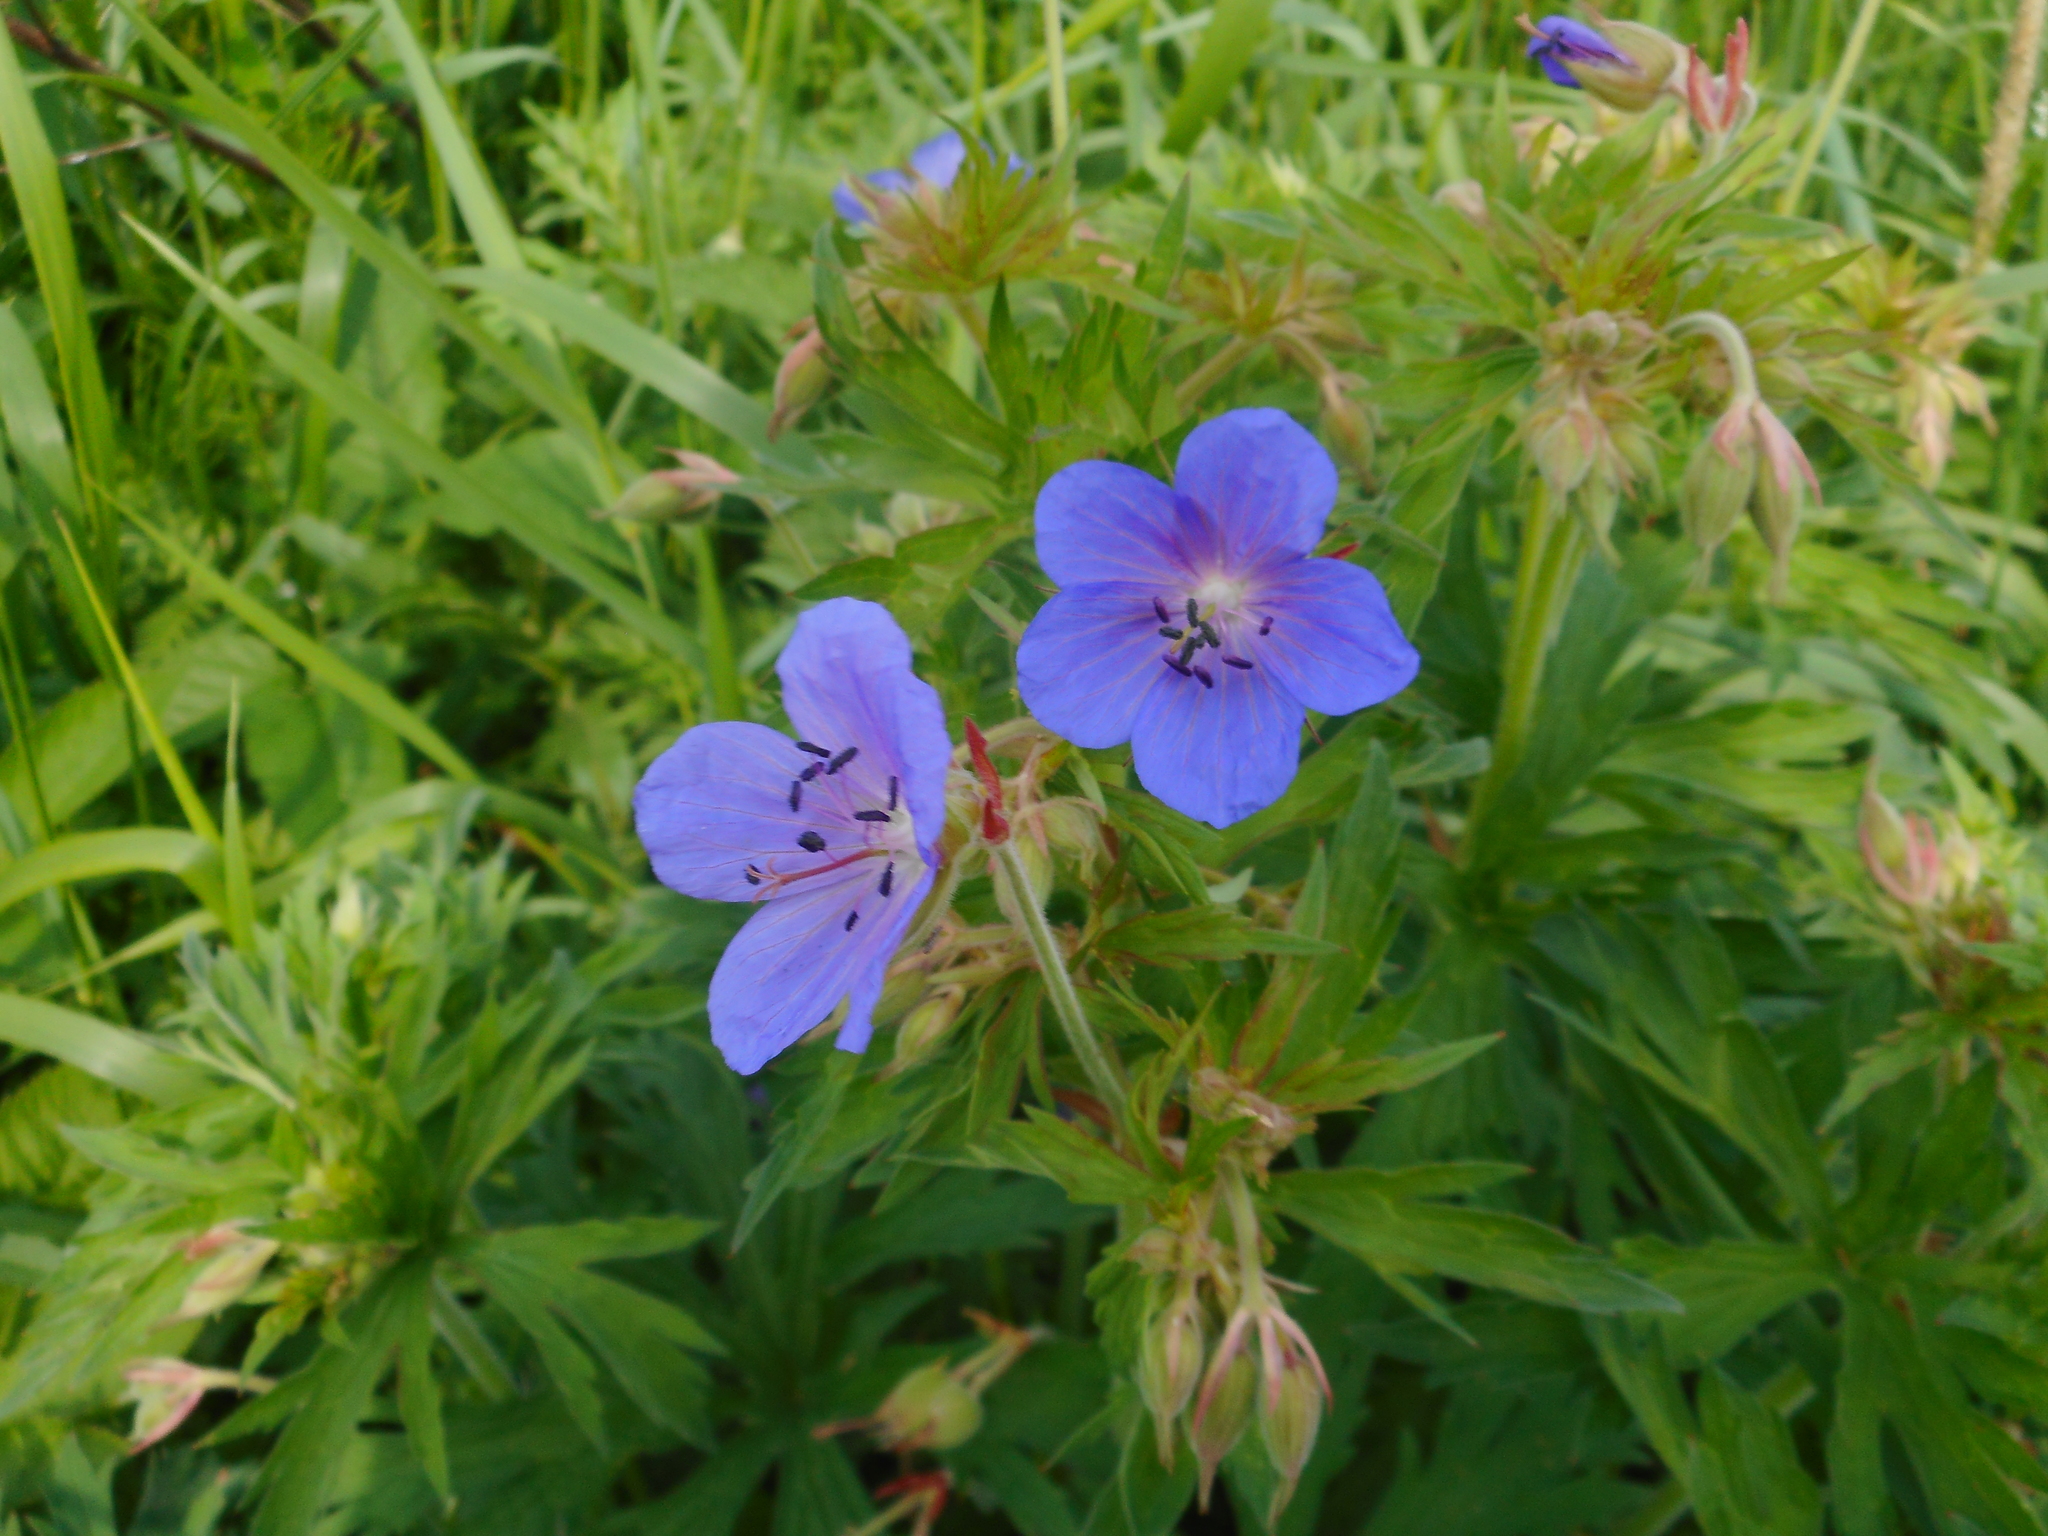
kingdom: Plantae
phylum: Tracheophyta
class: Magnoliopsida
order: Geraniales
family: Geraniaceae
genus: Geranium
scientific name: Geranium pratense
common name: Meadow crane's-bill
